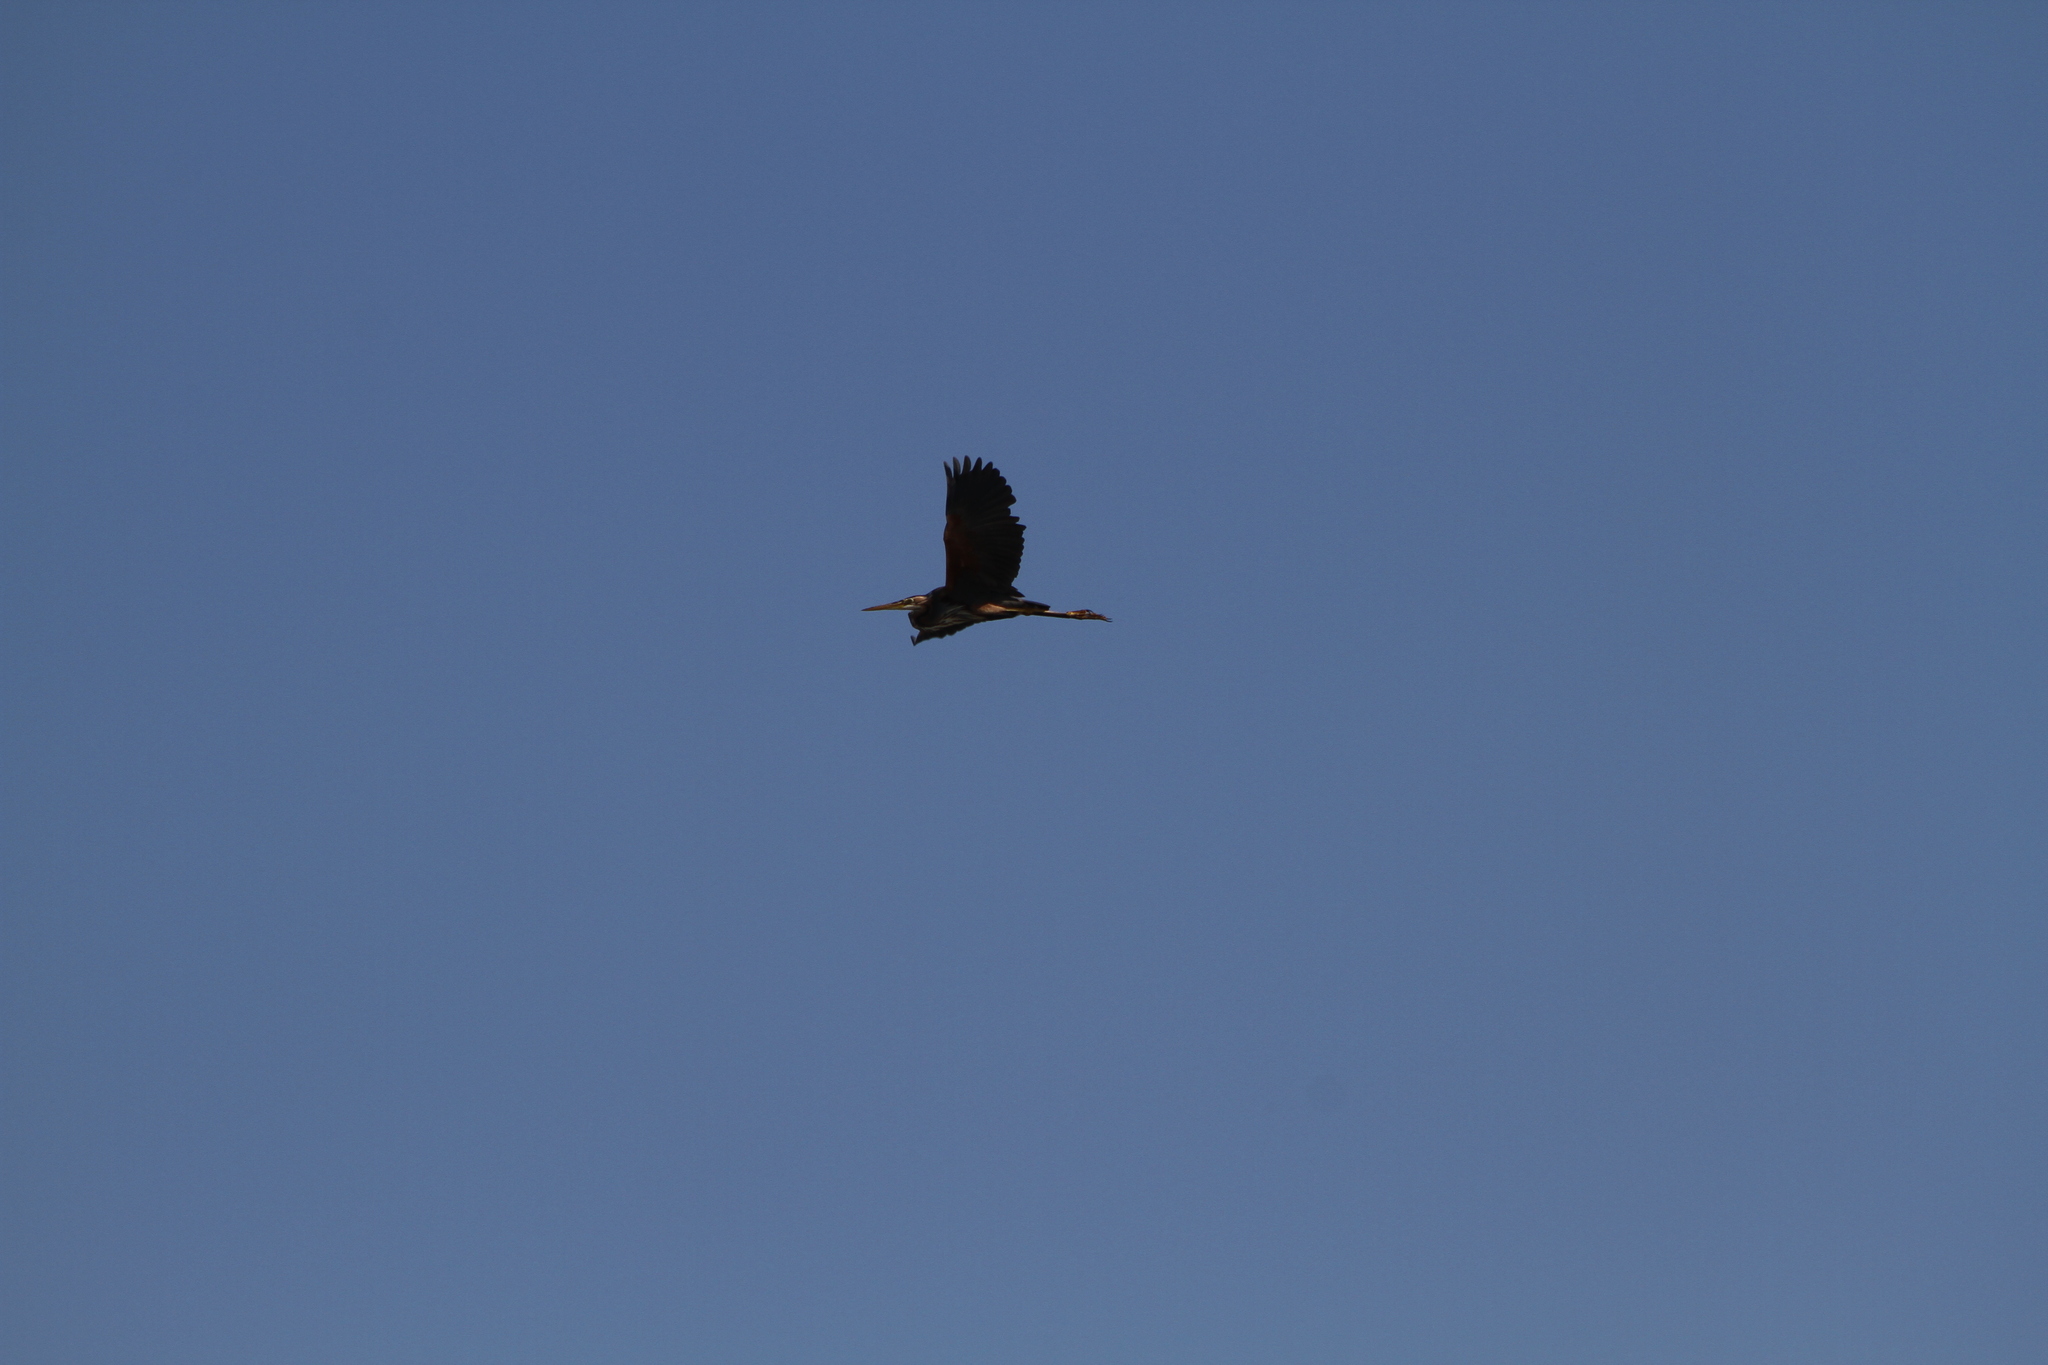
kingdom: Animalia
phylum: Chordata
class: Aves
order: Pelecaniformes
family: Ardeidae
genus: Ardea
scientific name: Ardea purpurea
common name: Purple heron
